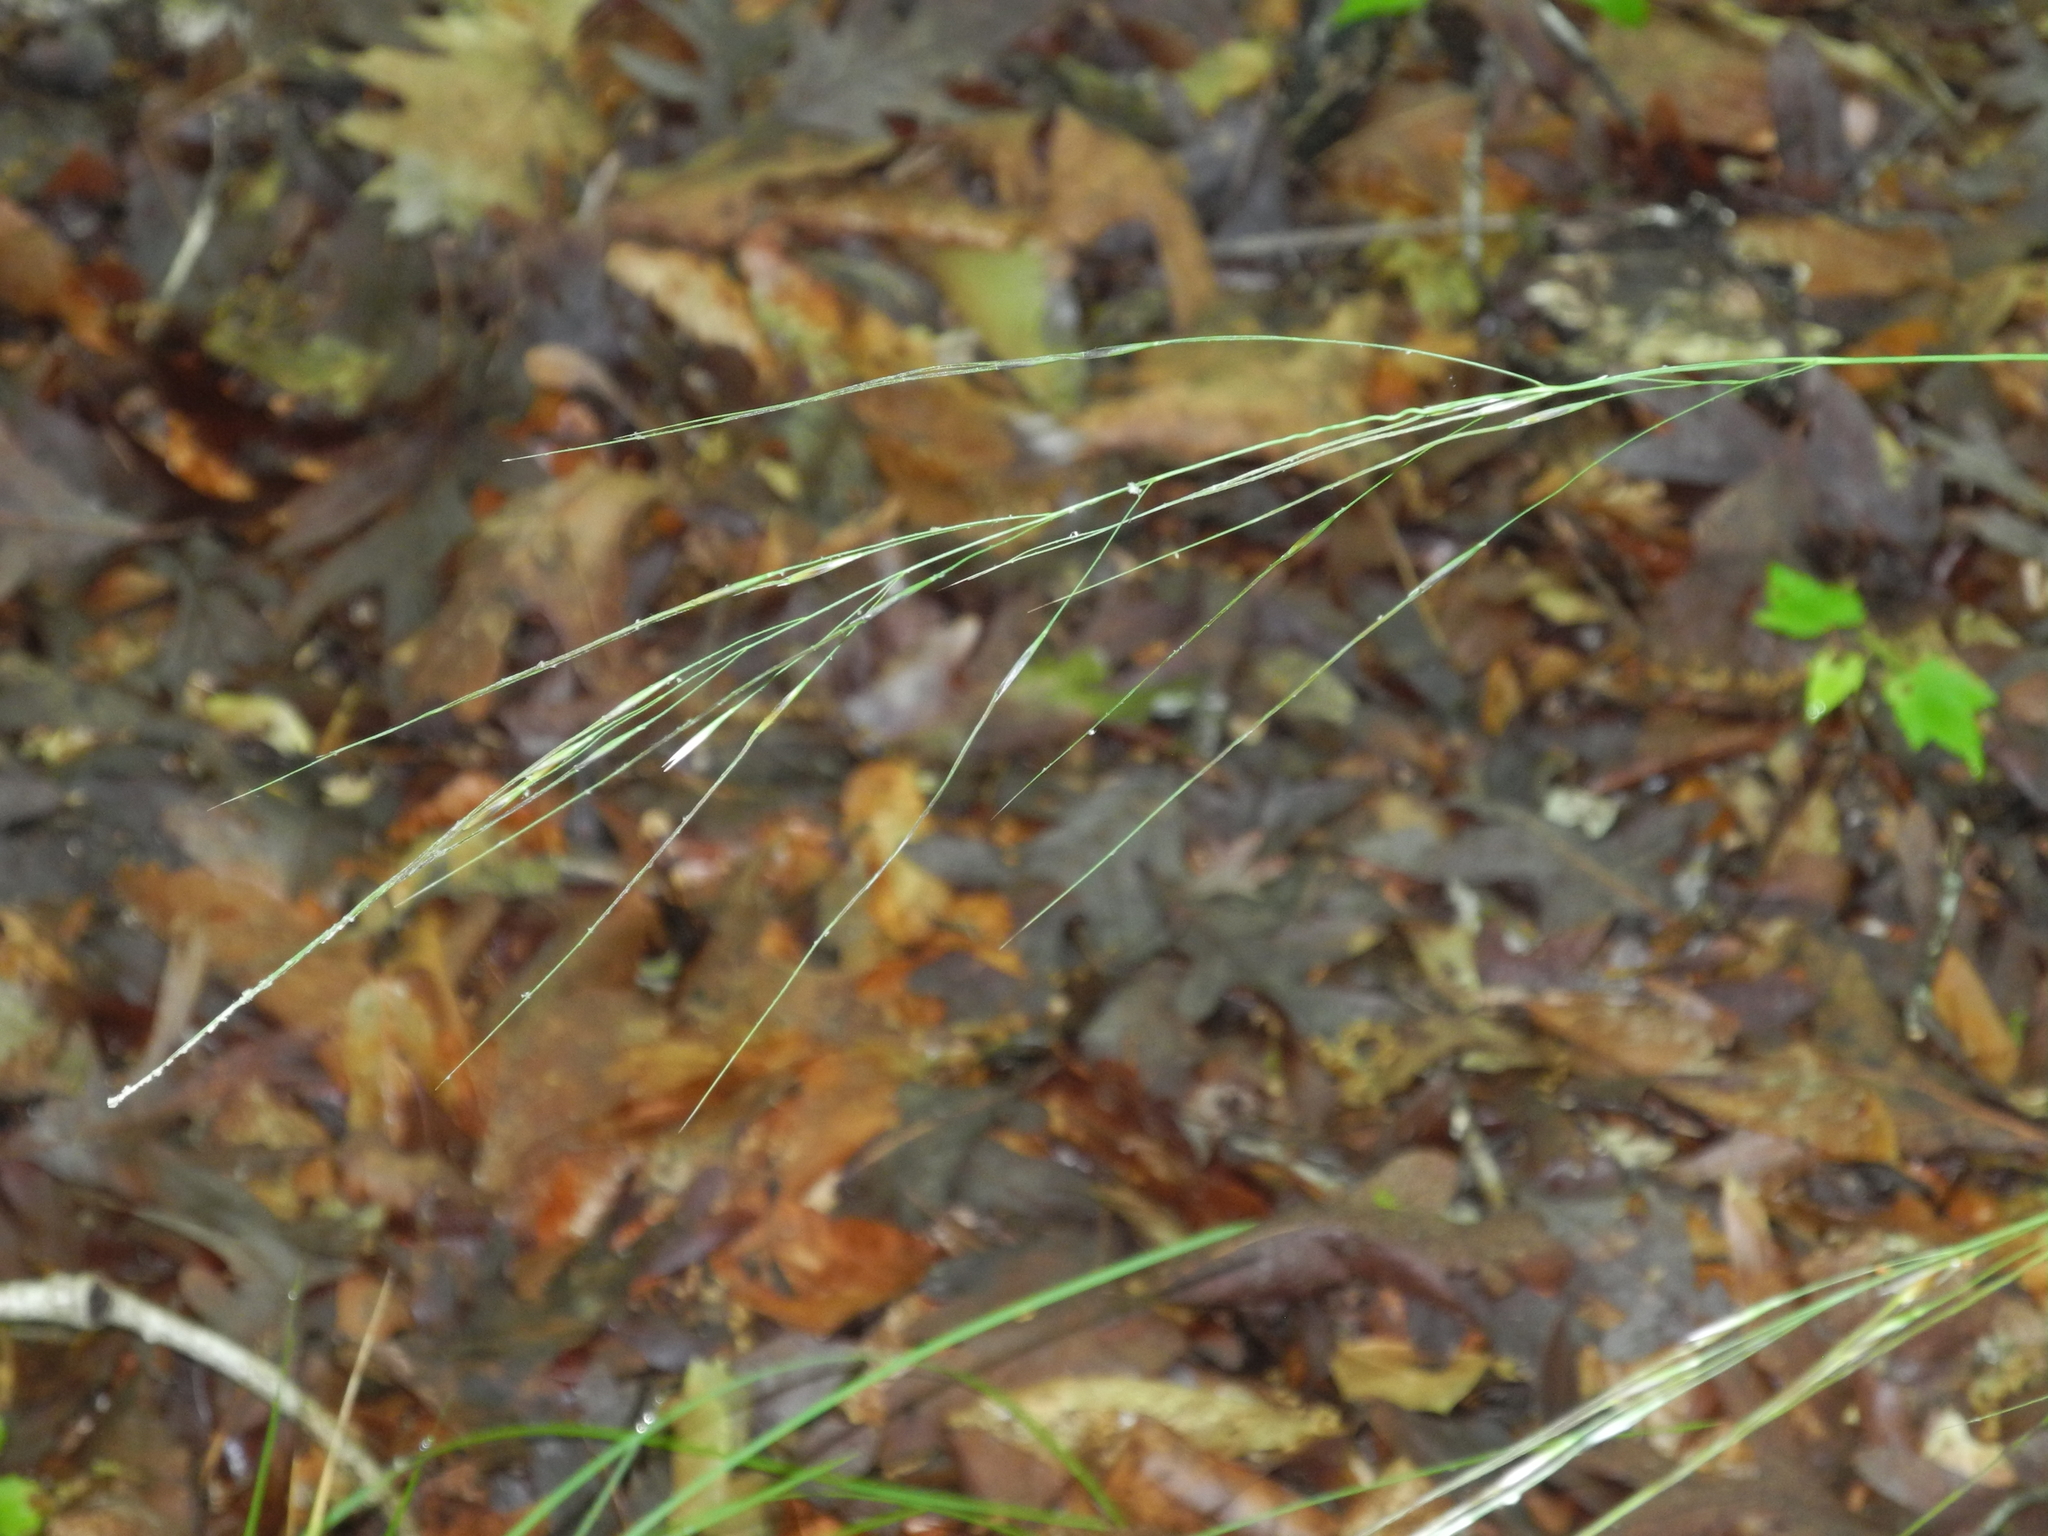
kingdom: Plantae
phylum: Tracheophyta
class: Liliopsida
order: Poales
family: Poaceae
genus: Hesperostipa
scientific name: Hesperostipa spartea
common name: Porcupine grass
